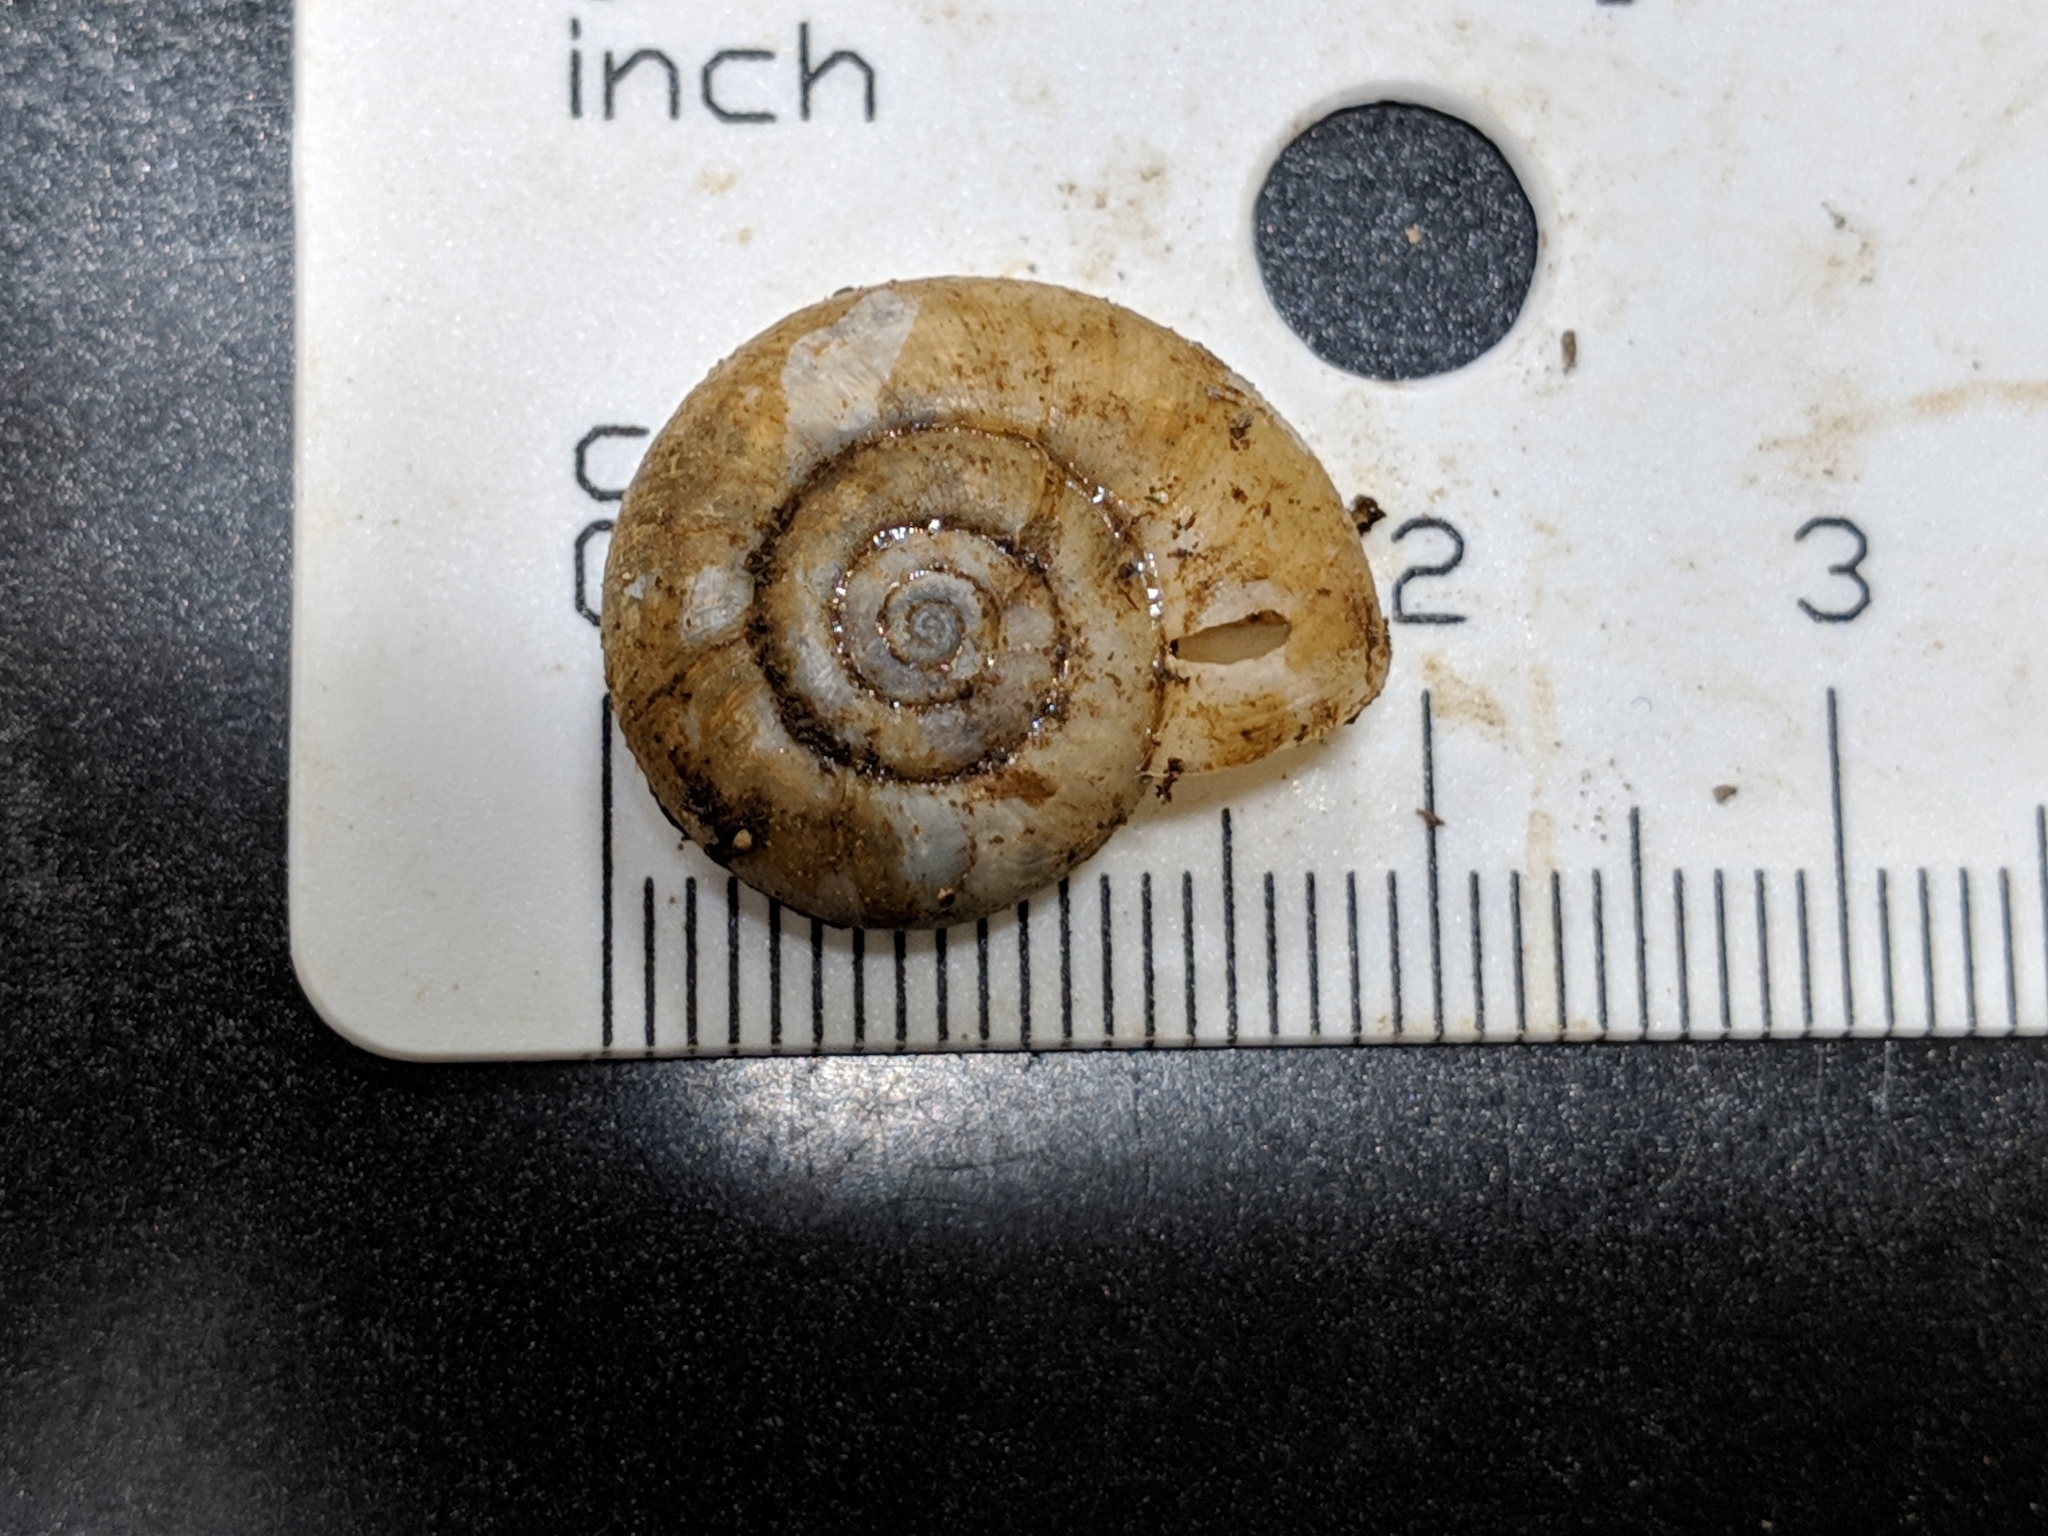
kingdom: Animalia
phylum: Mollusca
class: Gastropoda
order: Stylommatophora
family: Haplotrematidae
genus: Haplotrema
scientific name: Haplotrema concavum
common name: Gray-foot lancetooth
